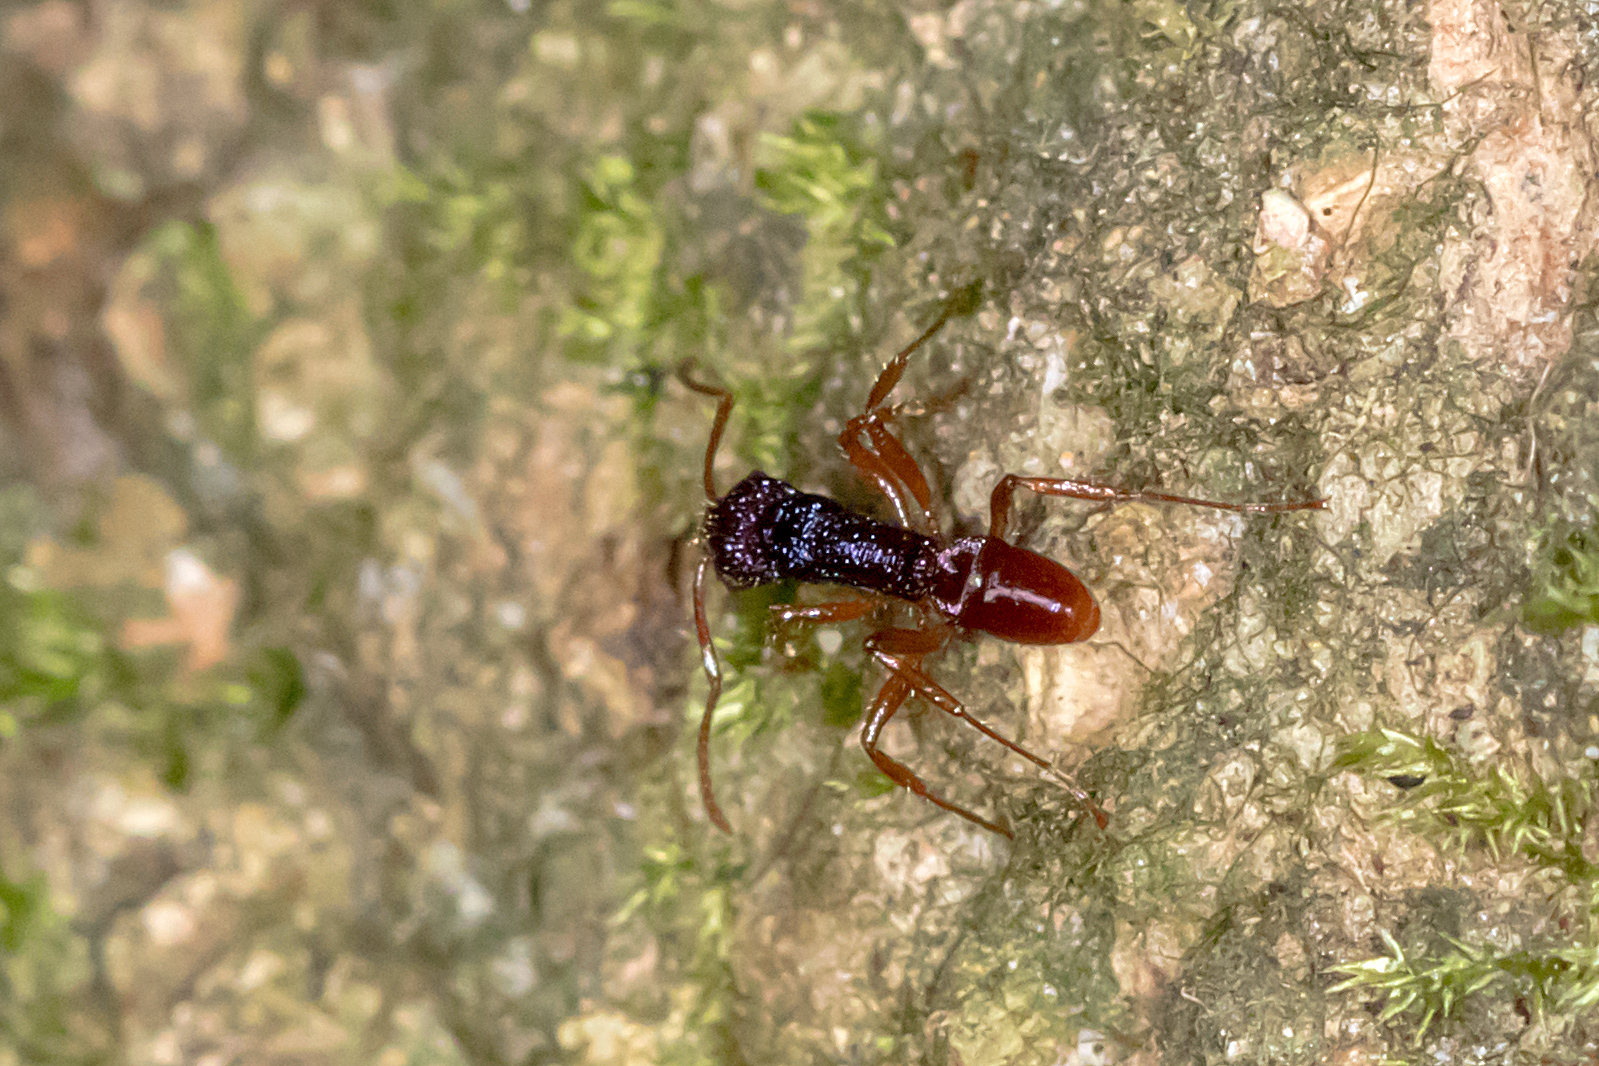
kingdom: Animalia
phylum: Arthropoda
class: Insecta
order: Hymenoptera
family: Formicidae
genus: Rhytidoponera
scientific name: Rhytidoponera croesus
